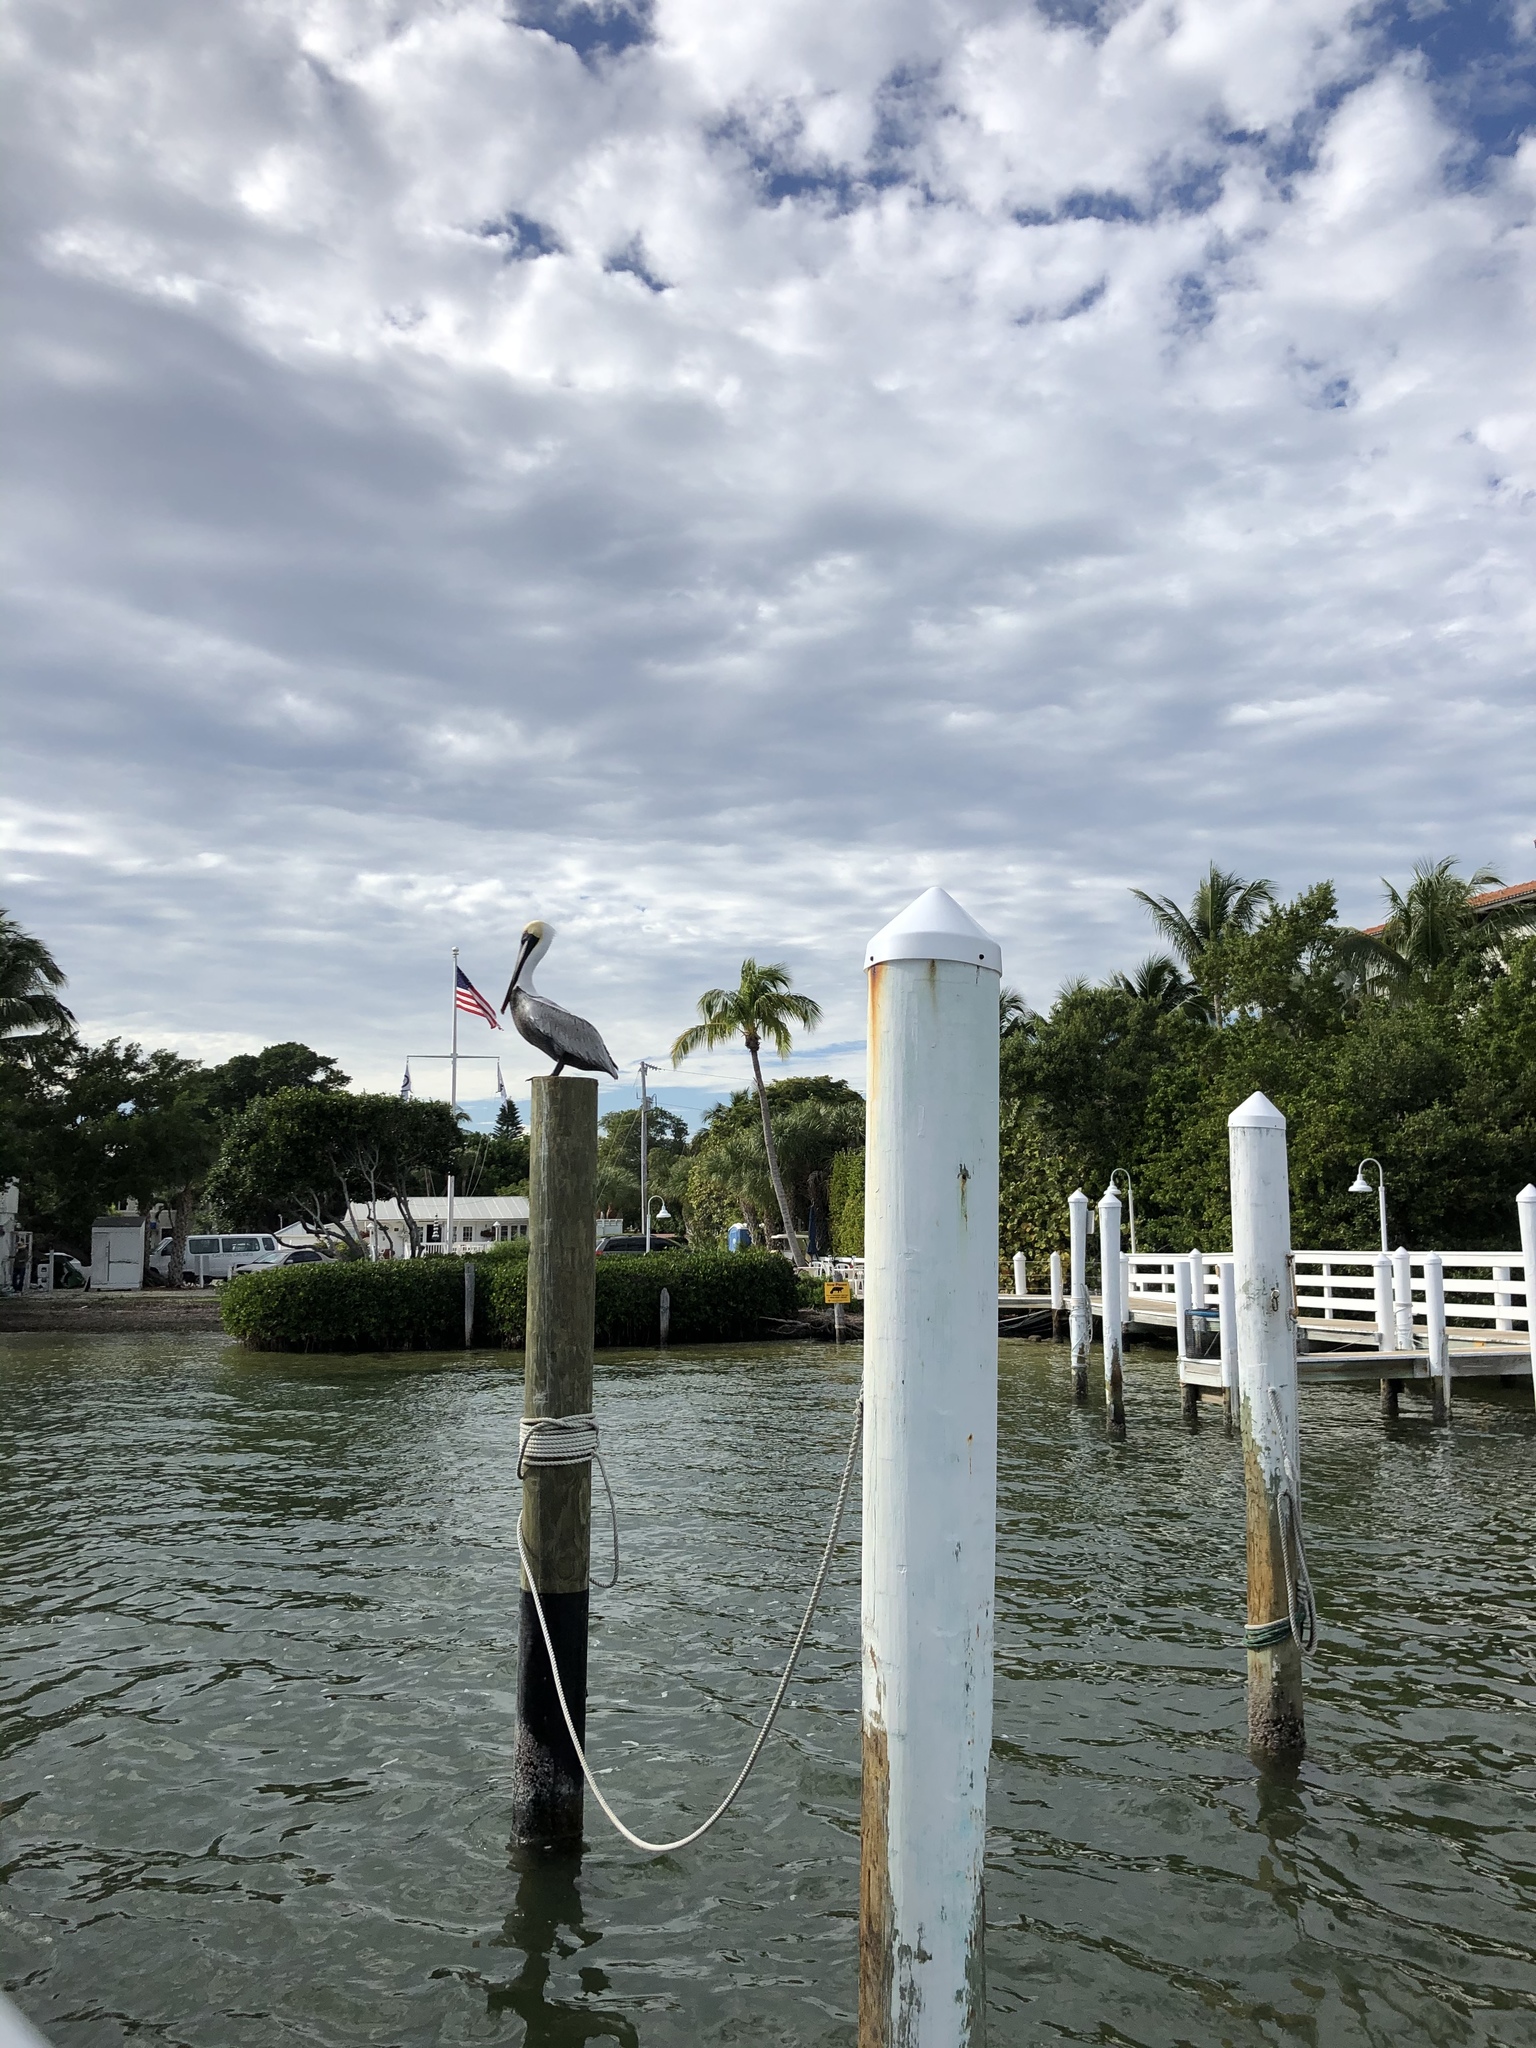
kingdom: Animalia
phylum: Chordata
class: Aves
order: Pelecaniformes
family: Pelecanidae
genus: Pelecanus
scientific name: Pelecanus occidentalis
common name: Brown pelican
